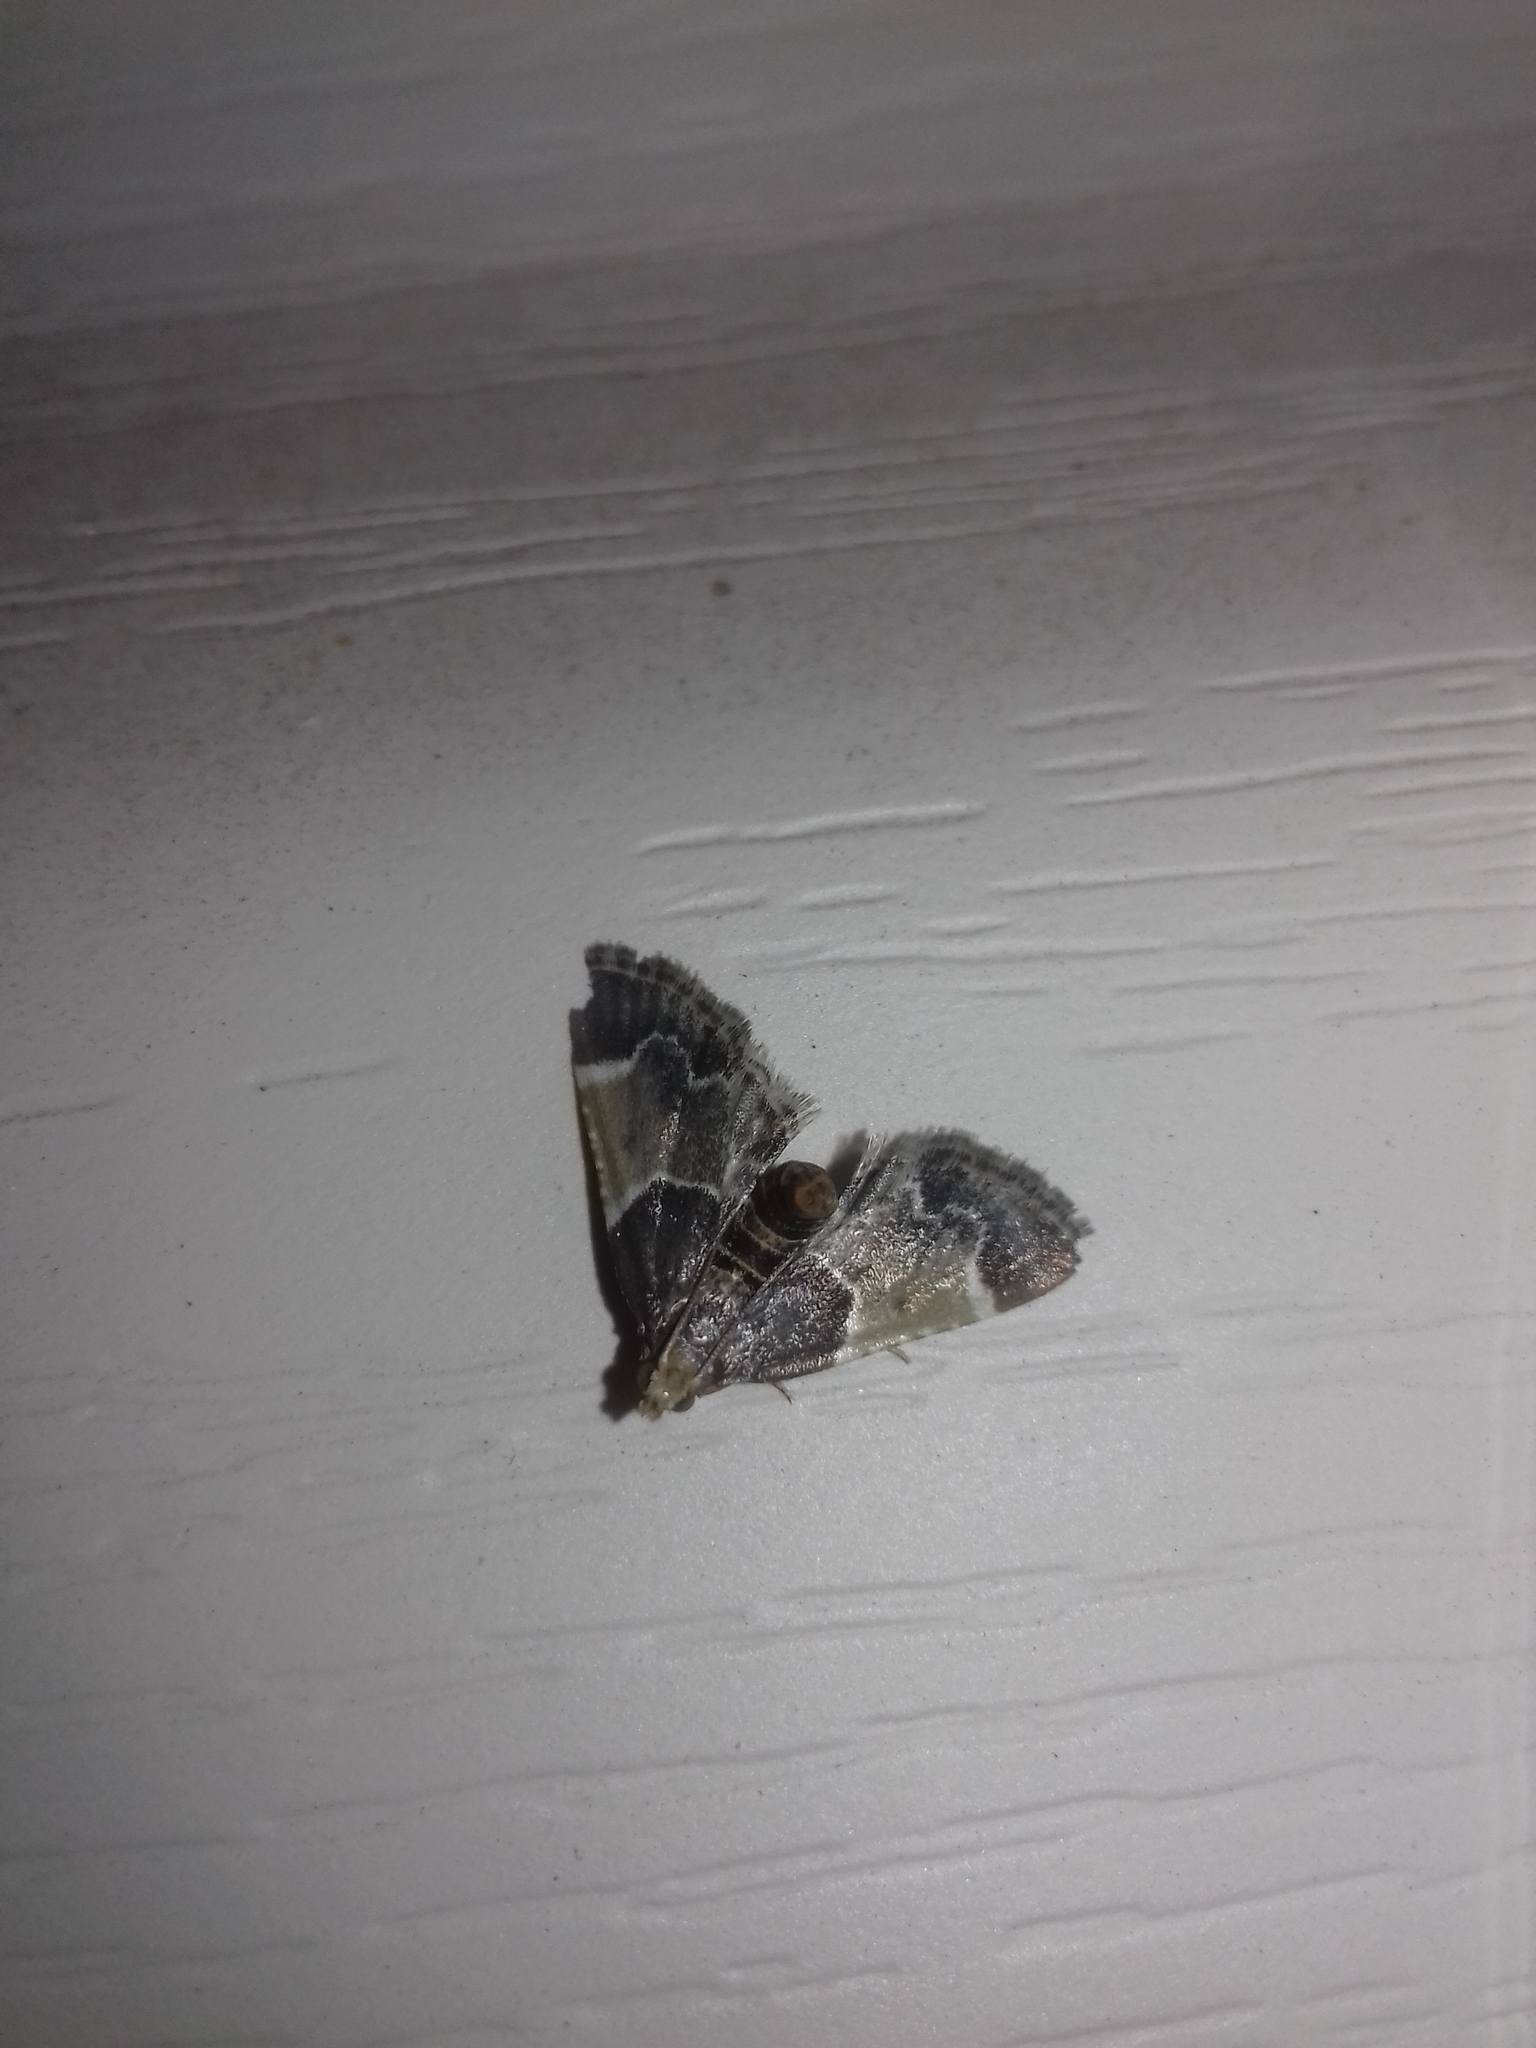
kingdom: Animalia
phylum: Arthropoda
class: Insecta
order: Lepidoptera
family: Pyralidae
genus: Pyralis
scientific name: Pyralis farinalis
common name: Meal moth
